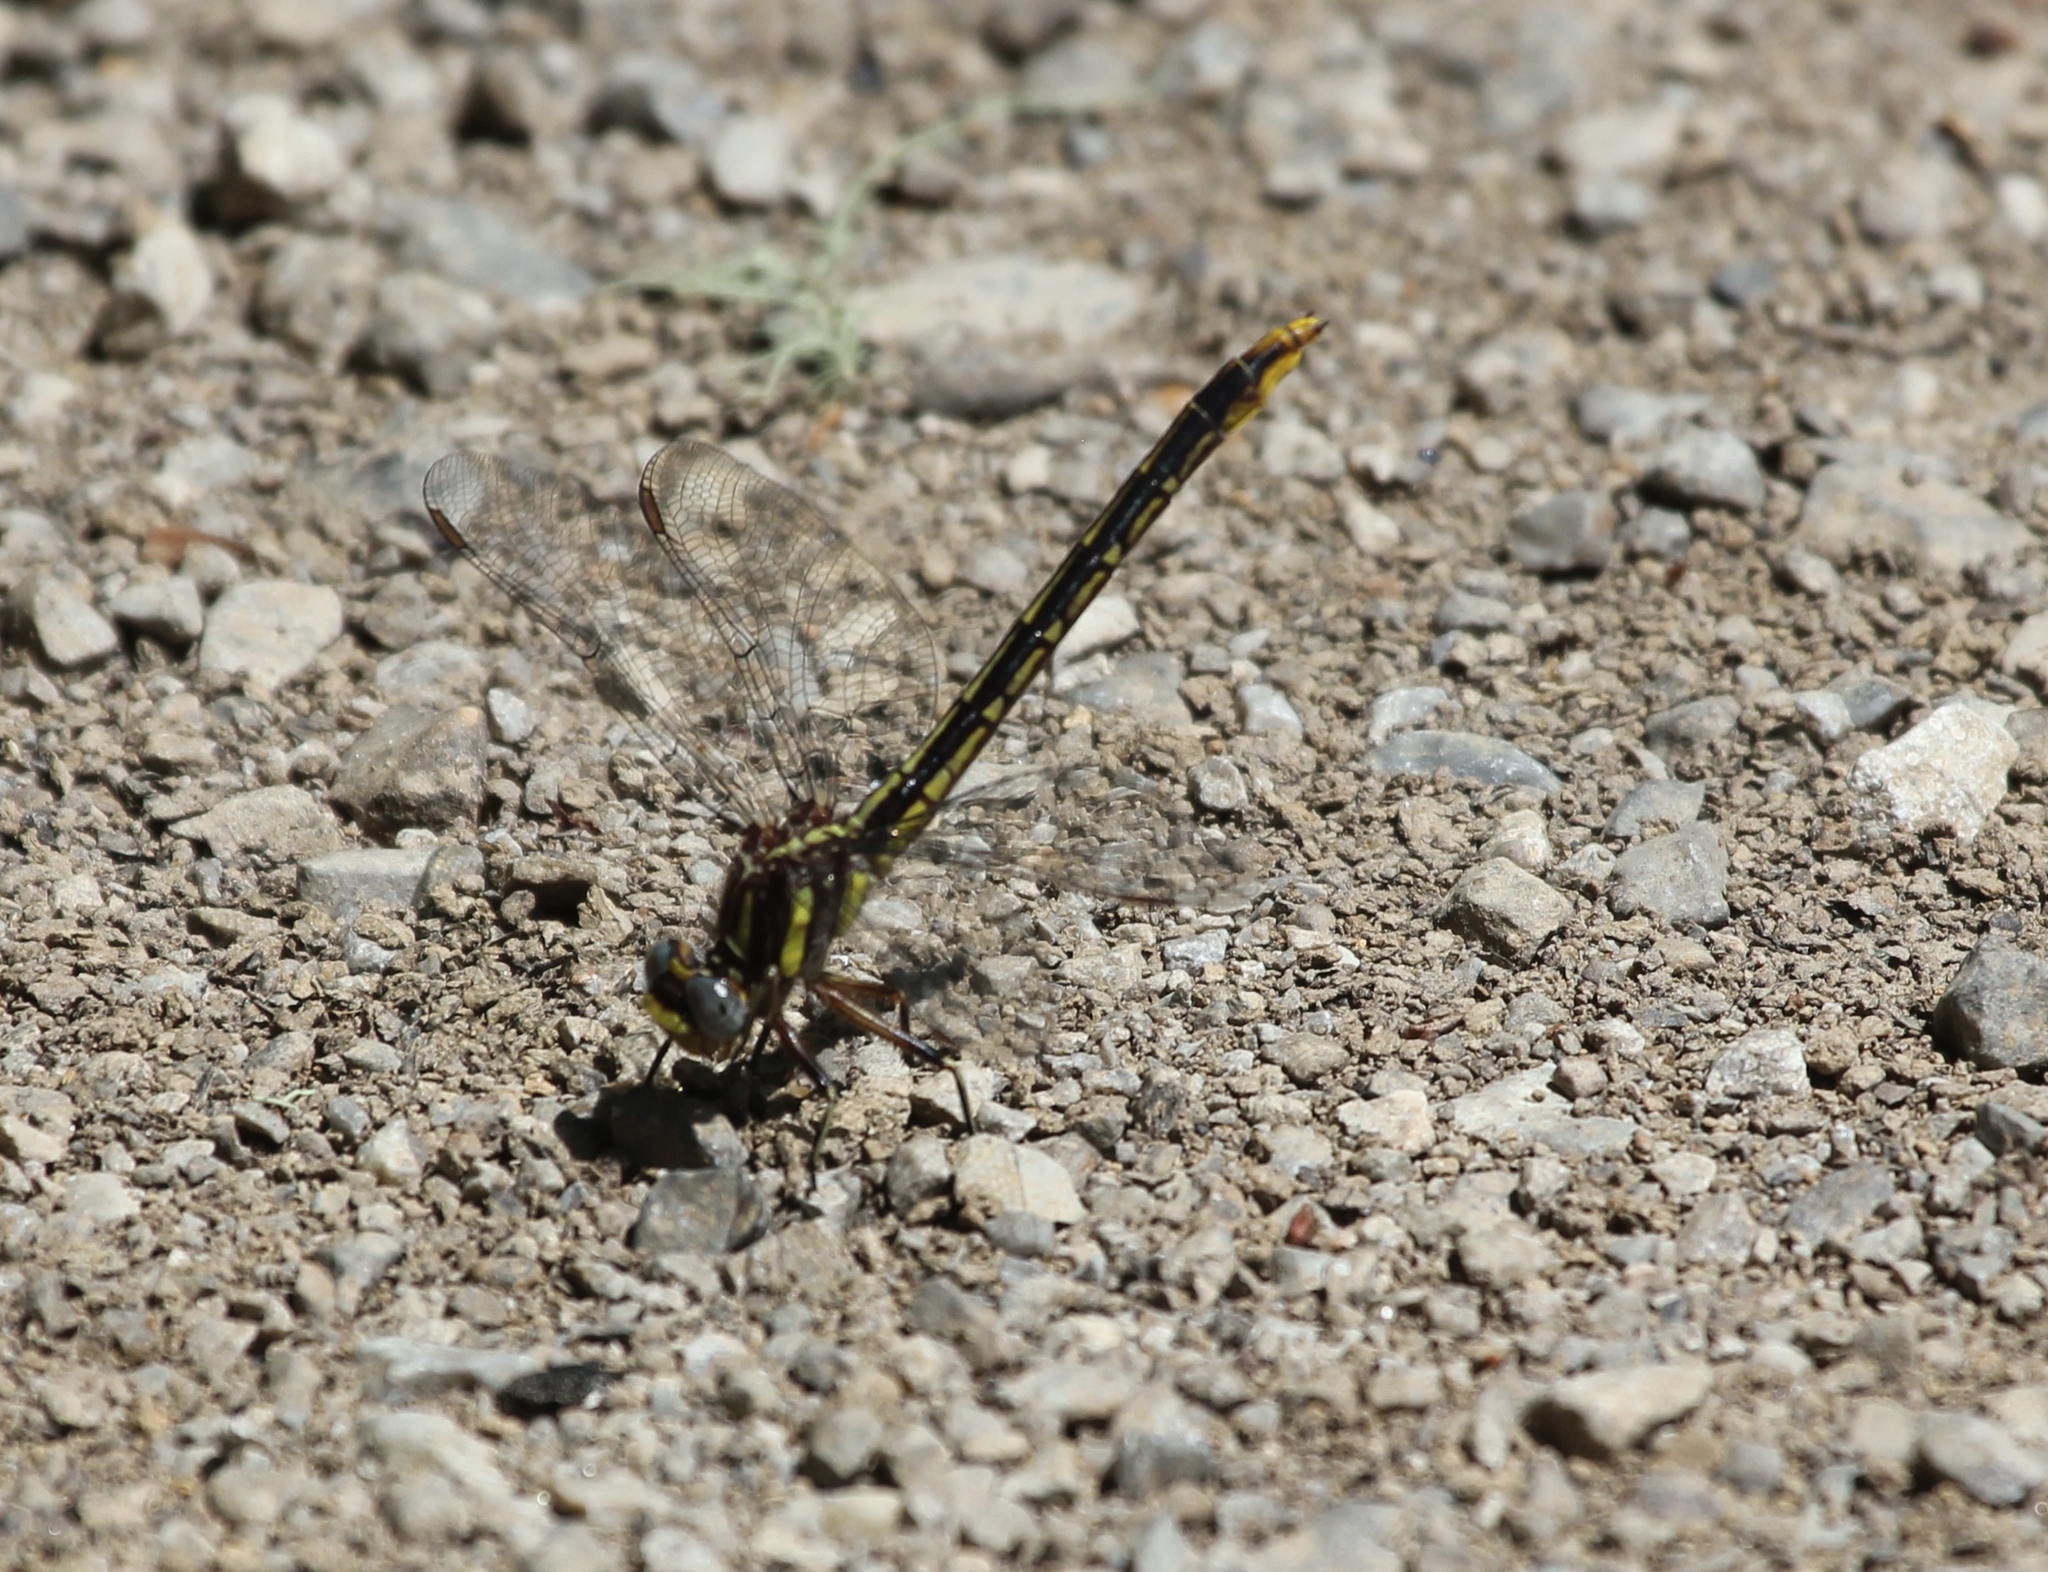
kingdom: Animalia
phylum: Arthropoda
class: Insecta
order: Odonata
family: Gomphidae
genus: Phanogomphus
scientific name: Phanogomphus exilis
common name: Lancet clubtail
